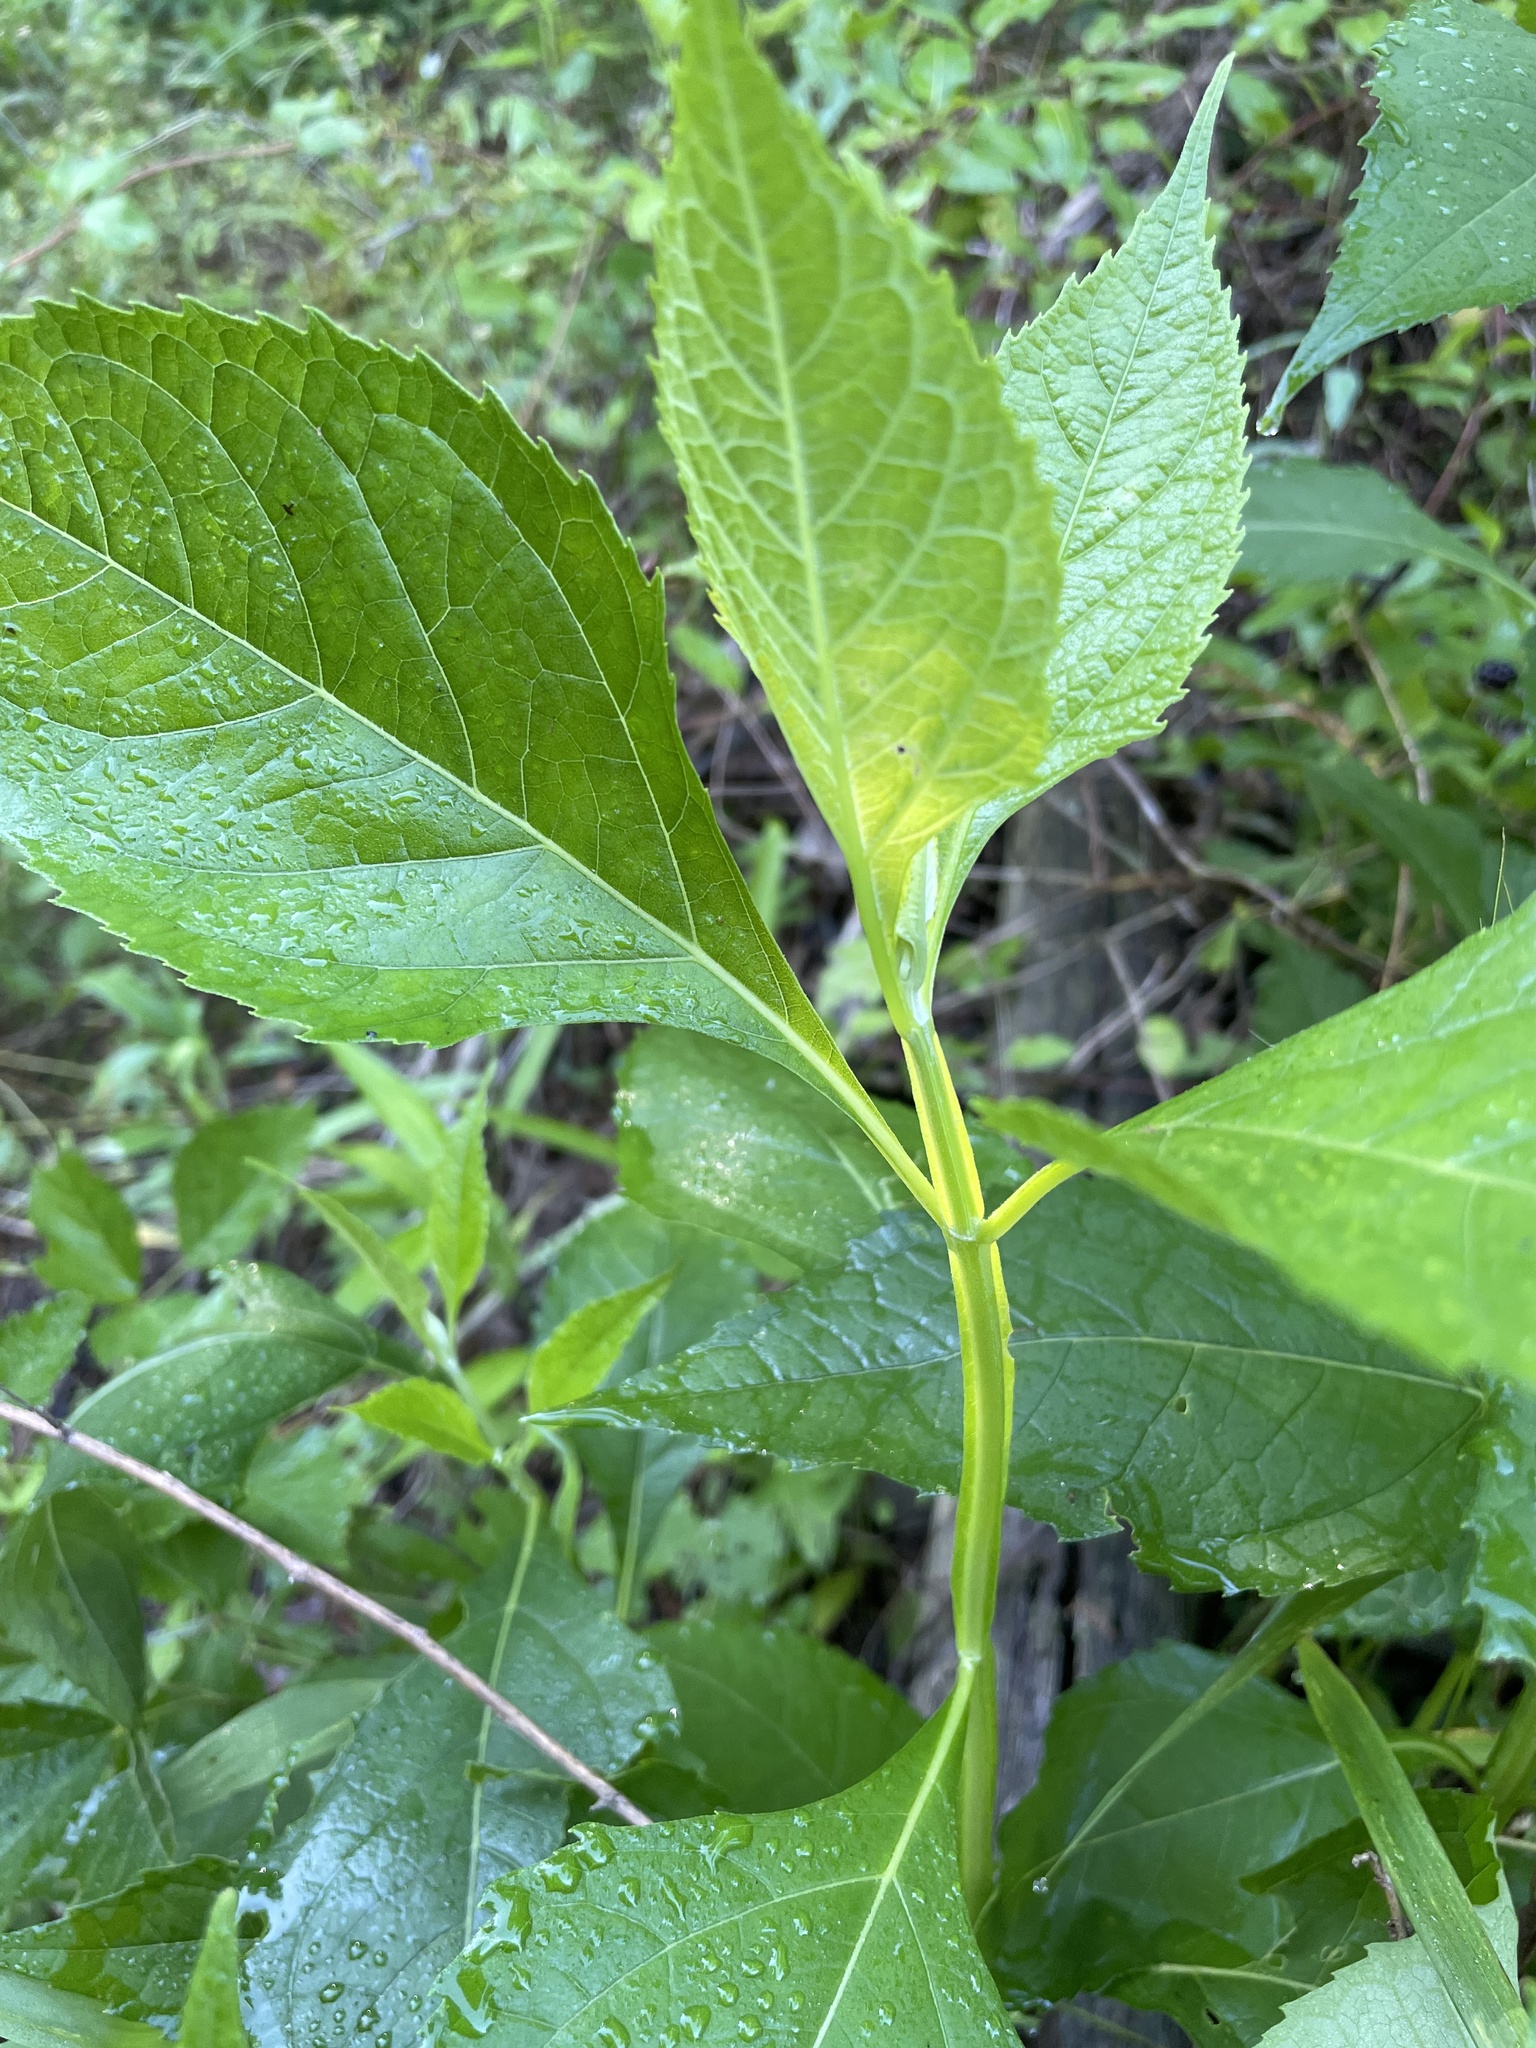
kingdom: Plantae
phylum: Tracheophyta
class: Magnoliopsida
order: Asterales
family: Asteraceae
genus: Verbesina
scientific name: Verbesina occidentalis
